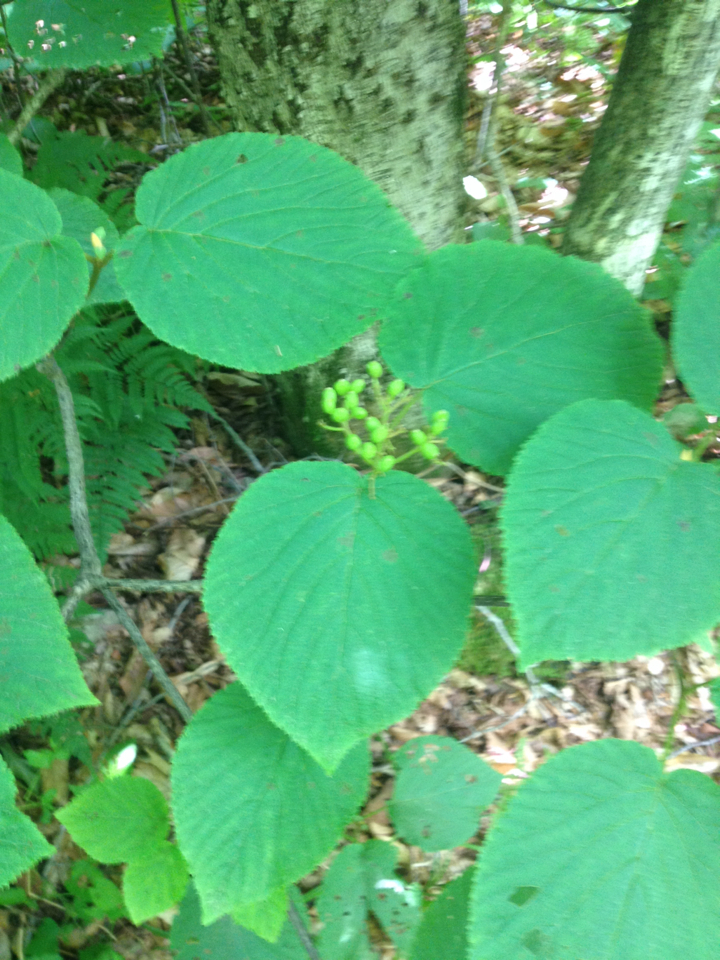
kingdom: Plantae
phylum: Tracheophyta
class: Magnoliopsida
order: Dipsacales
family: Viburnaceae
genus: Viburnum
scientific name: Viburnum lantanoides
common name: Hobblebush
